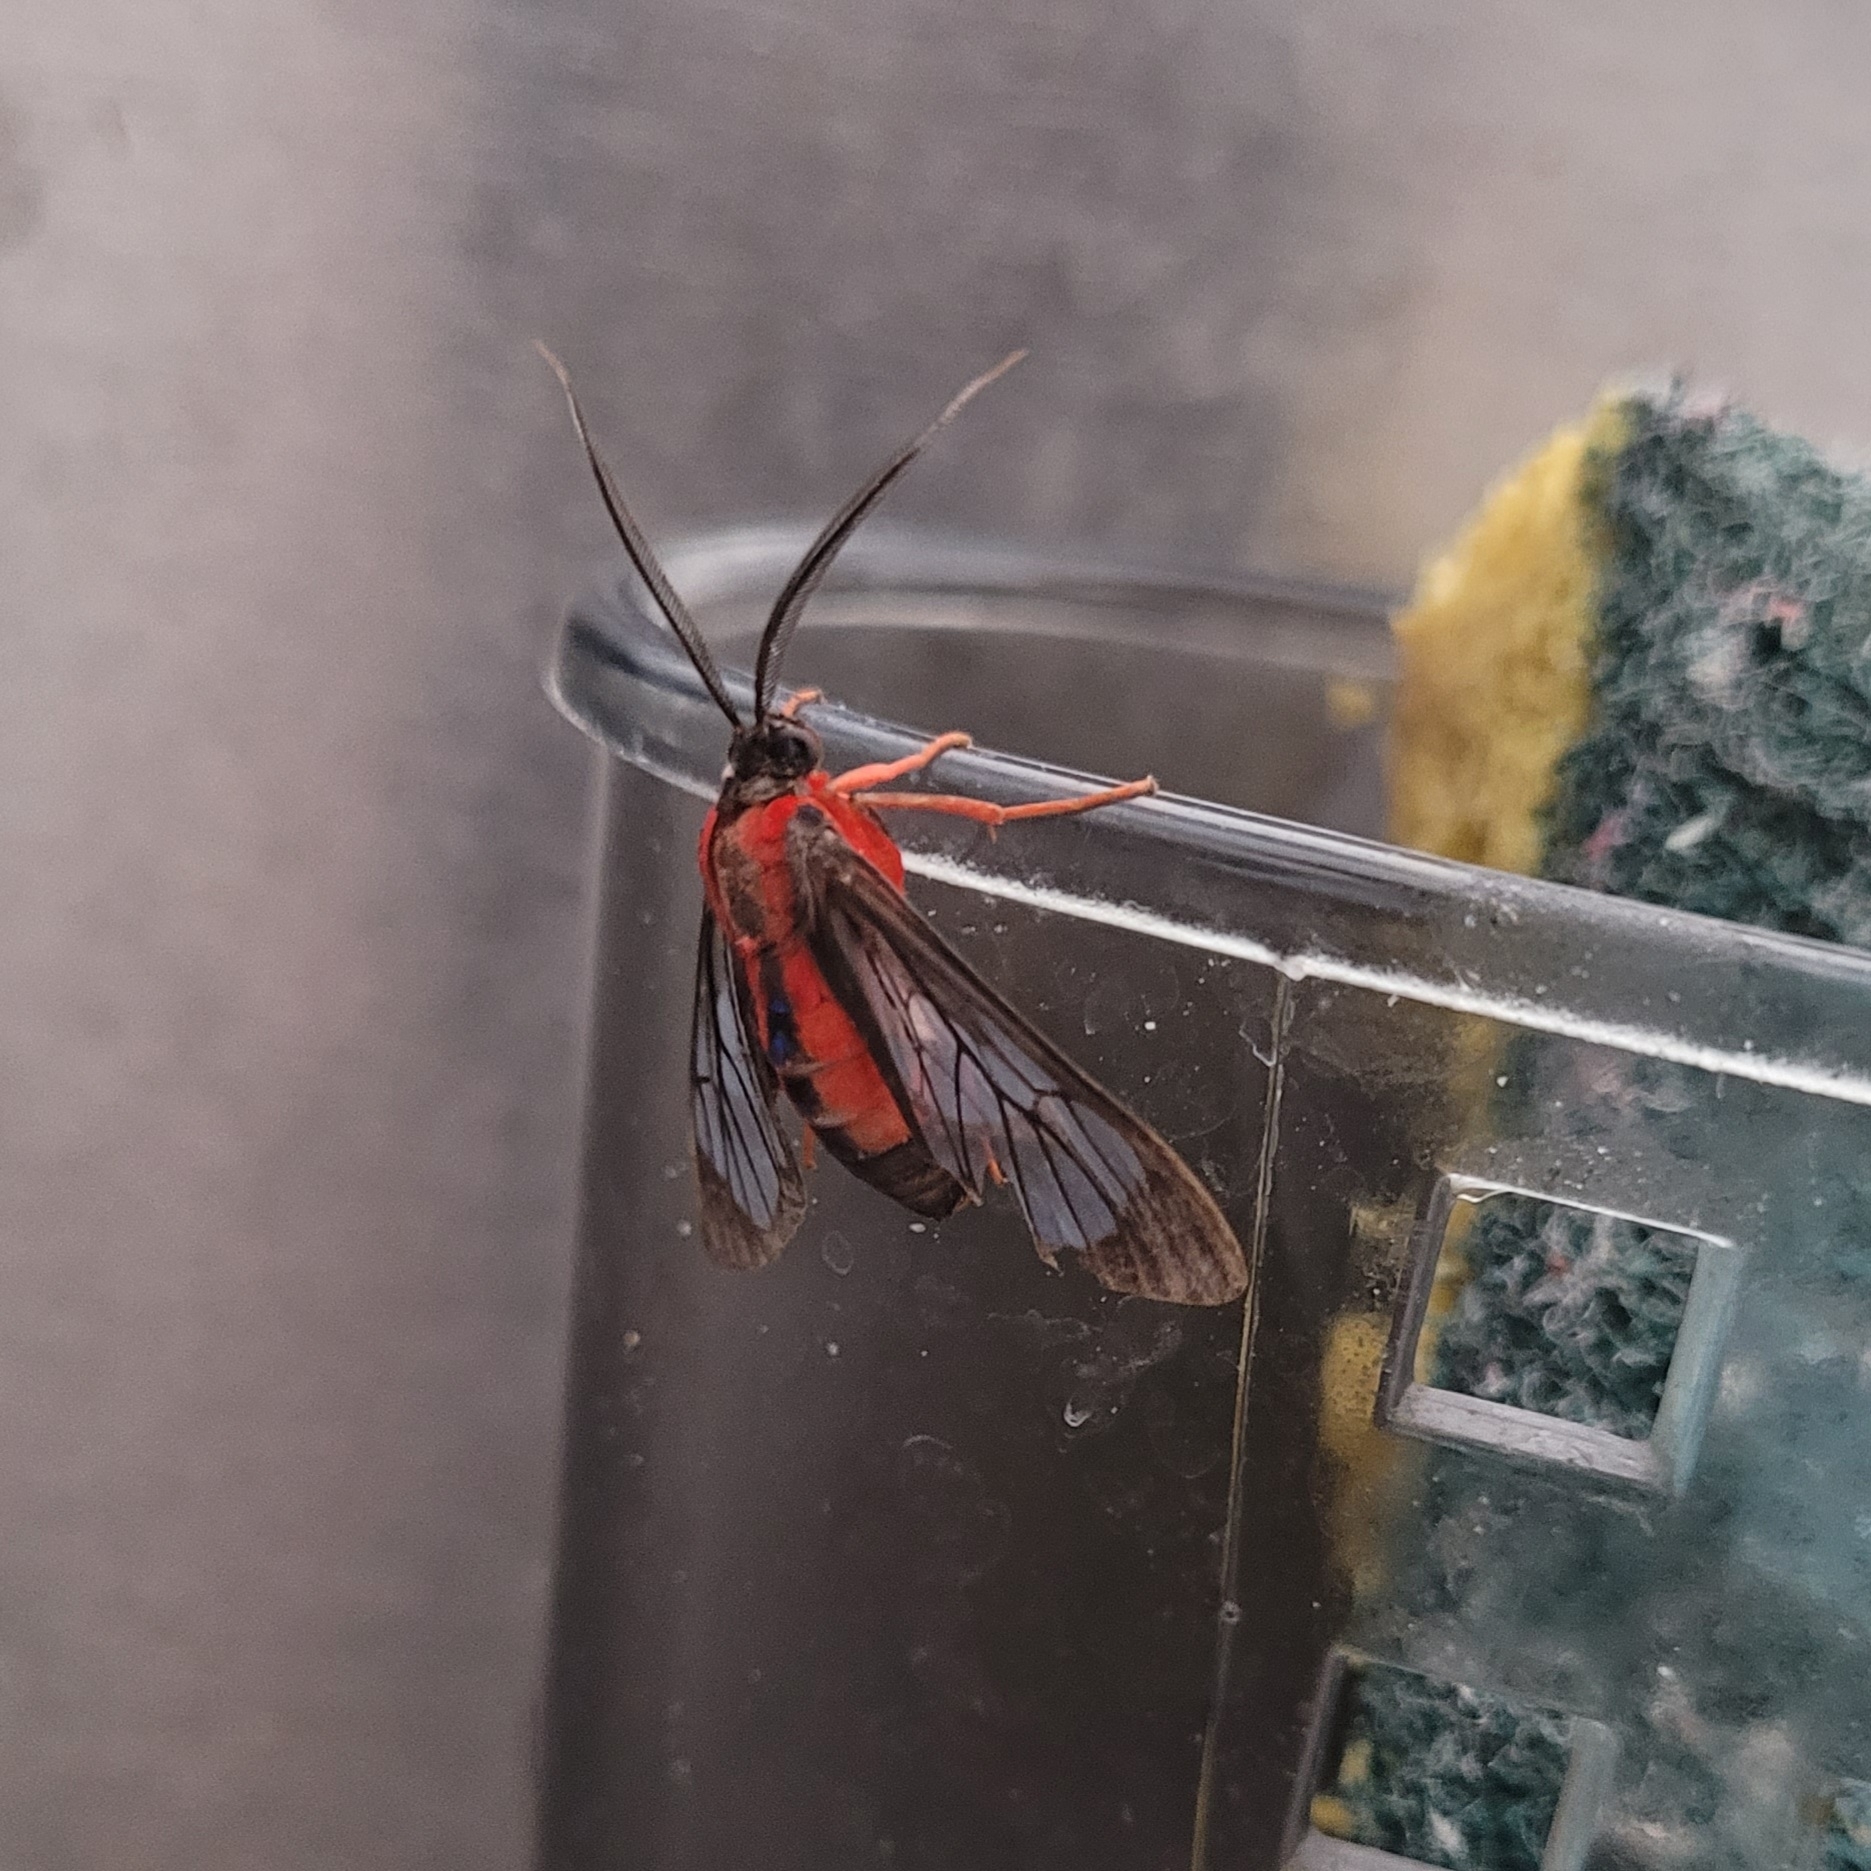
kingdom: Animalia
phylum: Arthropoda
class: Insecta
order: Lepidoptera
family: Erebidae
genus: Cosmosoma
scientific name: Cosmosoma myrodora
